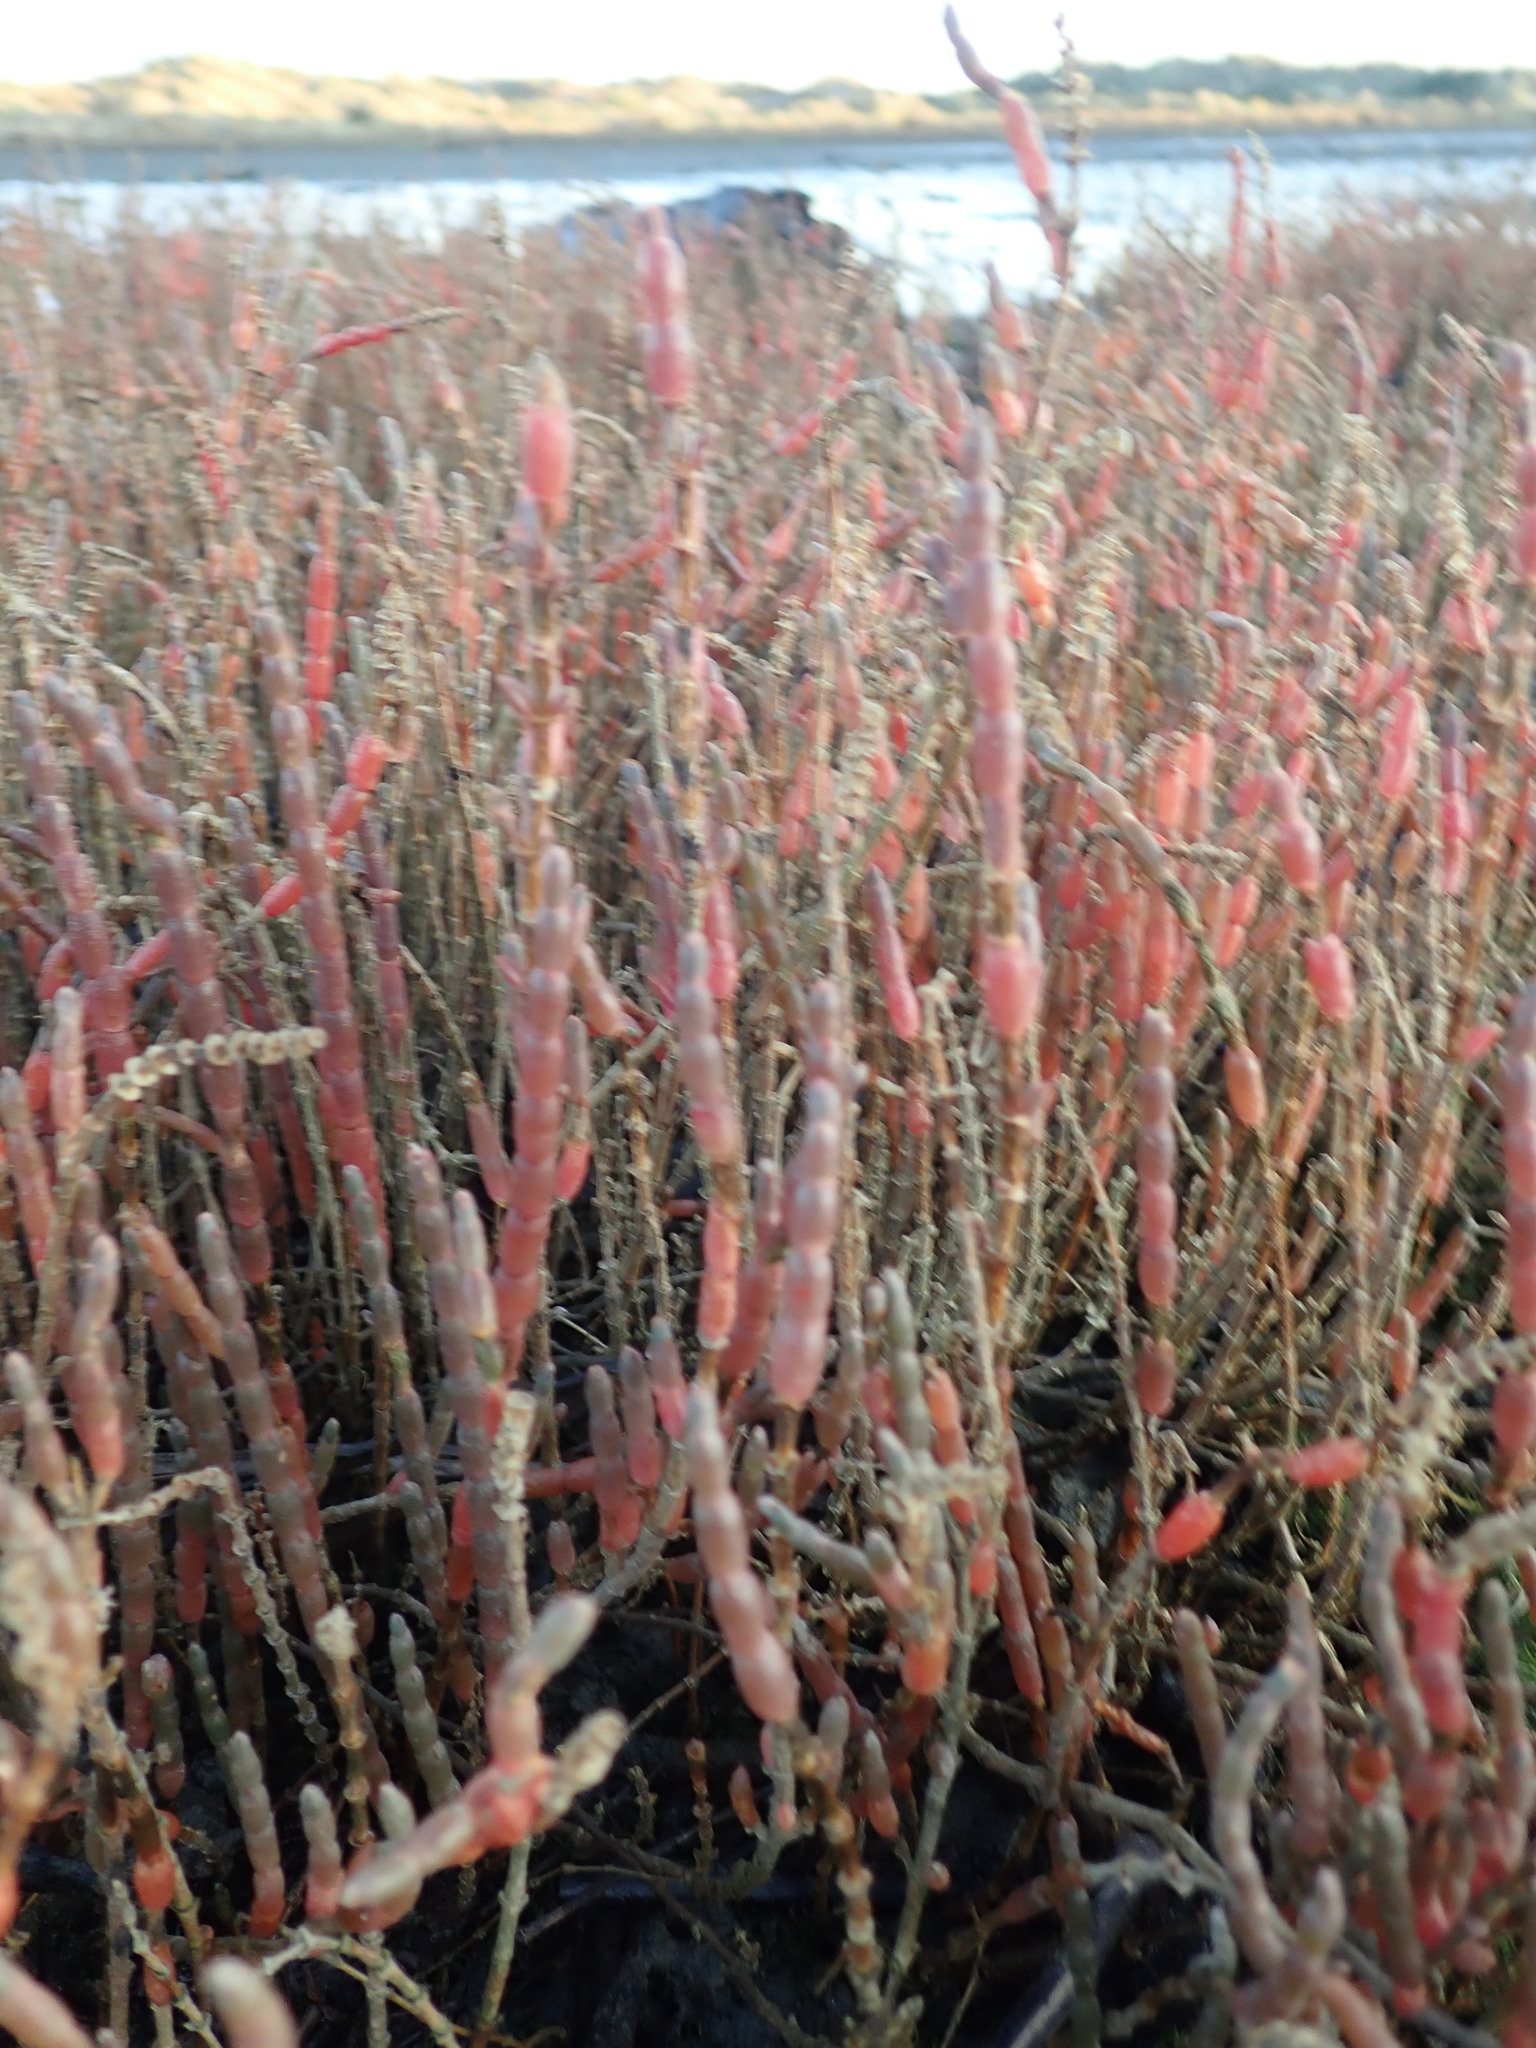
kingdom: Plantae
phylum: Tracheophyta
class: Magnoliopsida
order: Caryophyllales
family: Amaranthaceae
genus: Salicornia
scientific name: Salicornia quinqueflora
